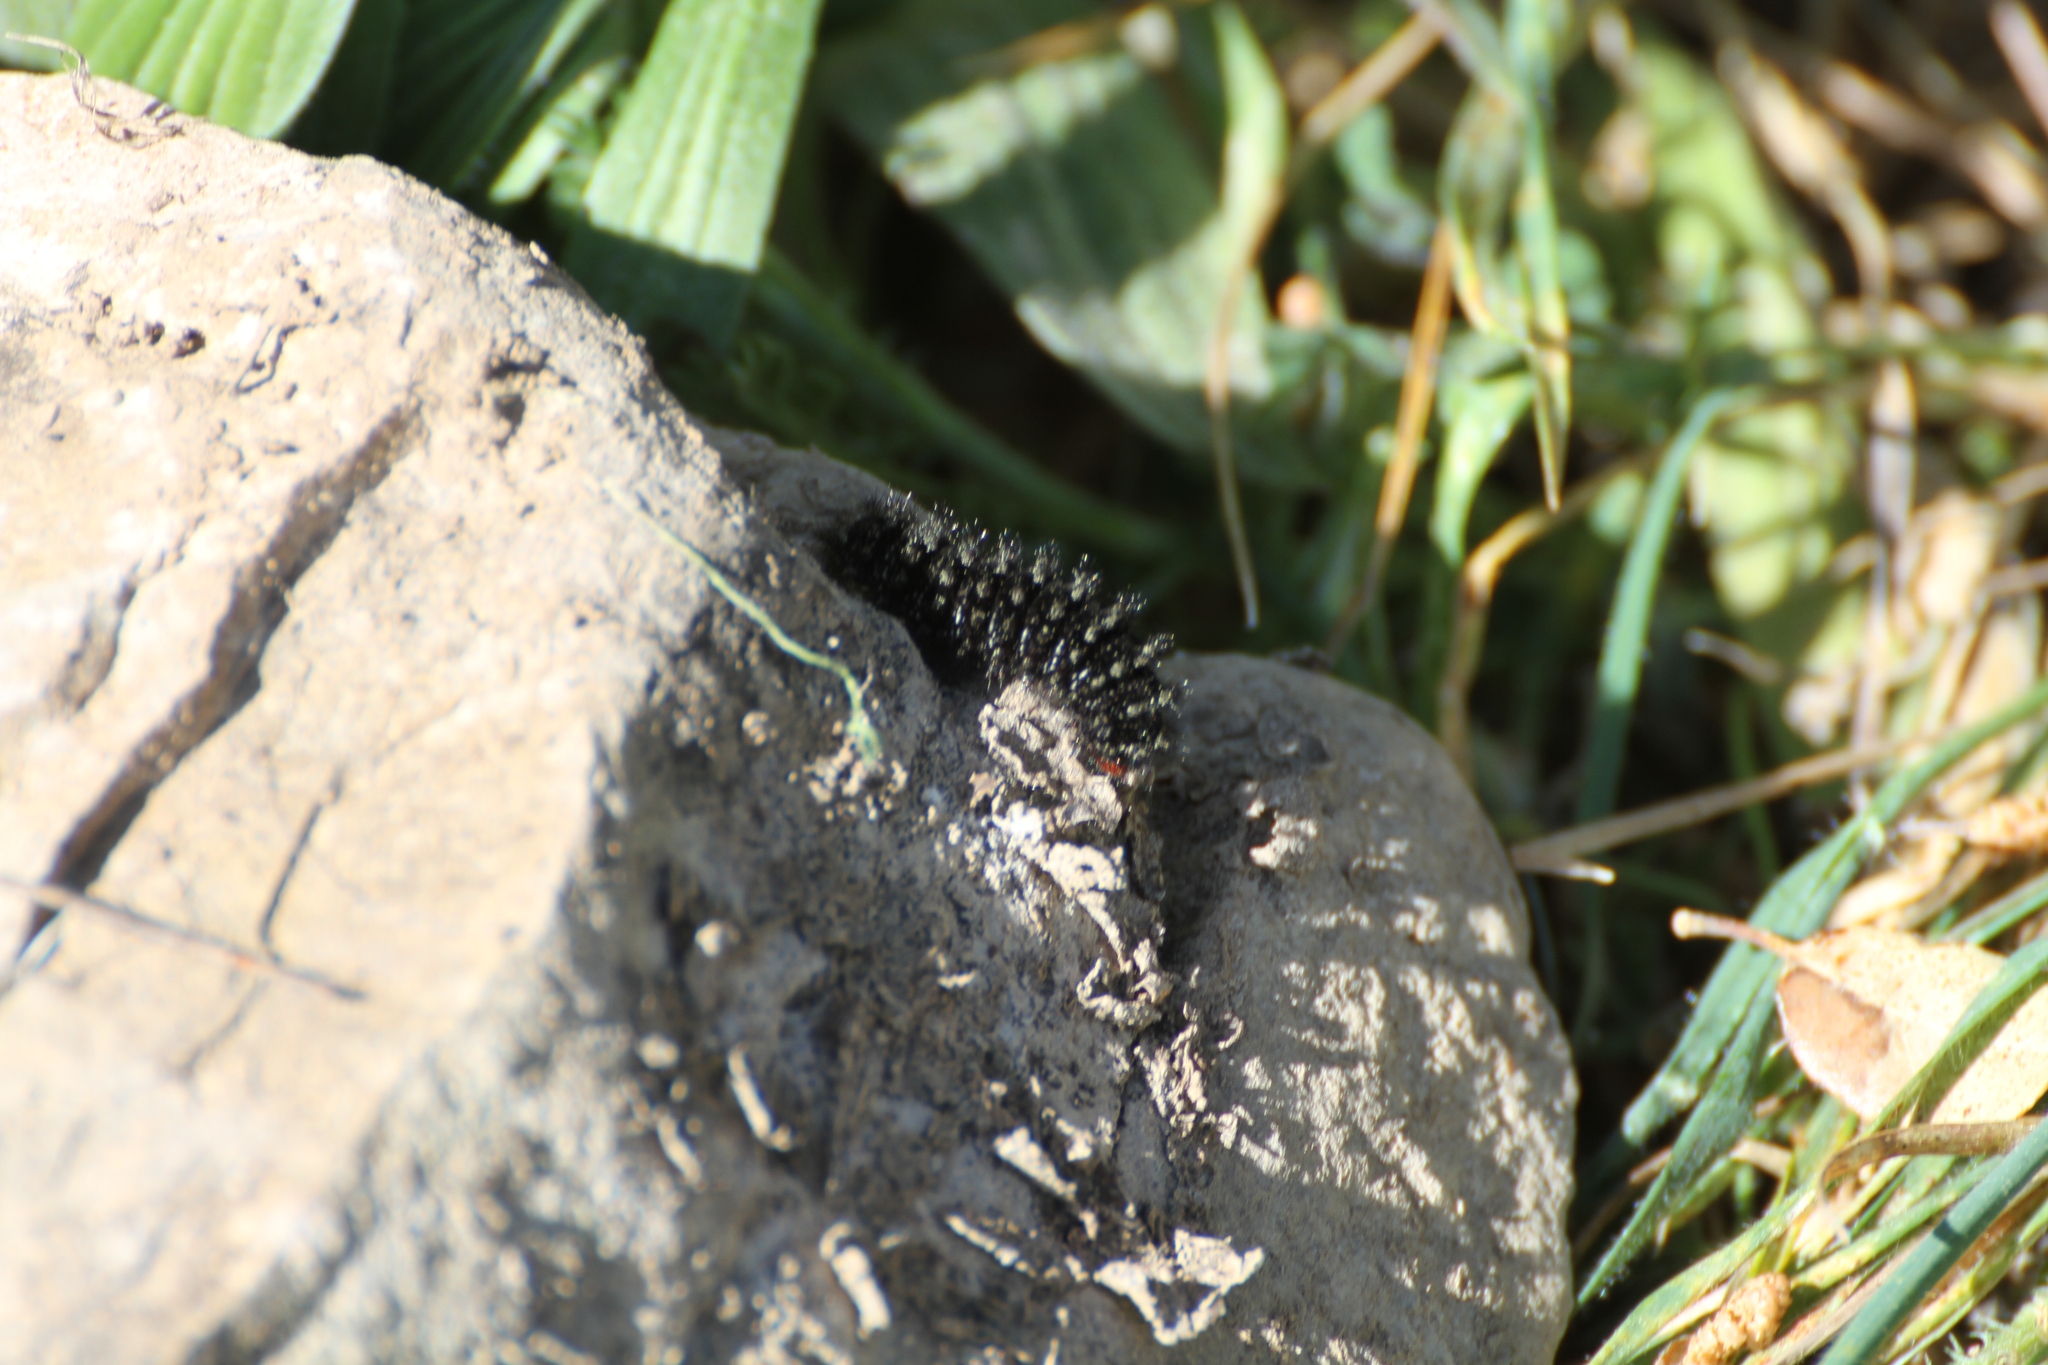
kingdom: Animalia
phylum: Arthropoda
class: Insecta
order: Lepidoptera
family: Nymphalidae
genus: Melitaea
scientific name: Melitaea cinxia
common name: Glanville fritillary
